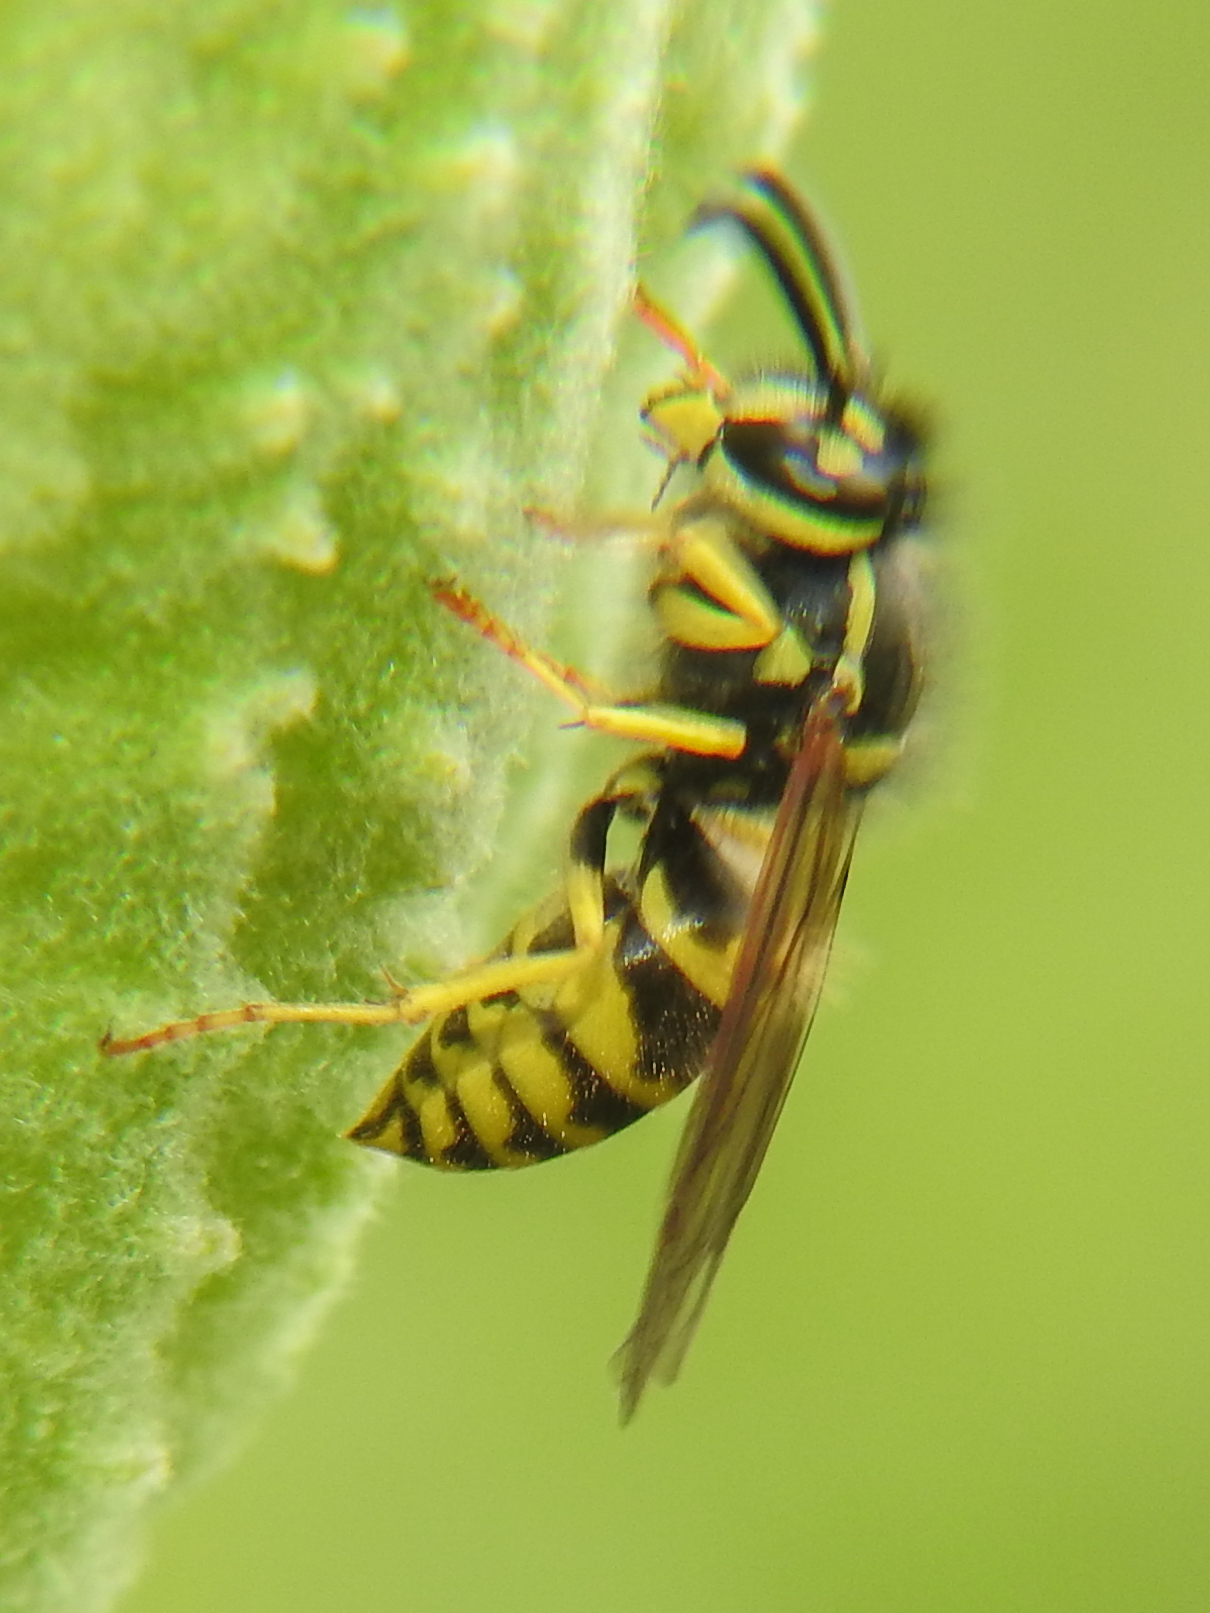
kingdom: Animalia
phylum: Arthropoda
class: Insecta
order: Hymenoptera
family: Vespidae
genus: Vespula
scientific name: Vespula maculifrons
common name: Eastern yellowjacket
